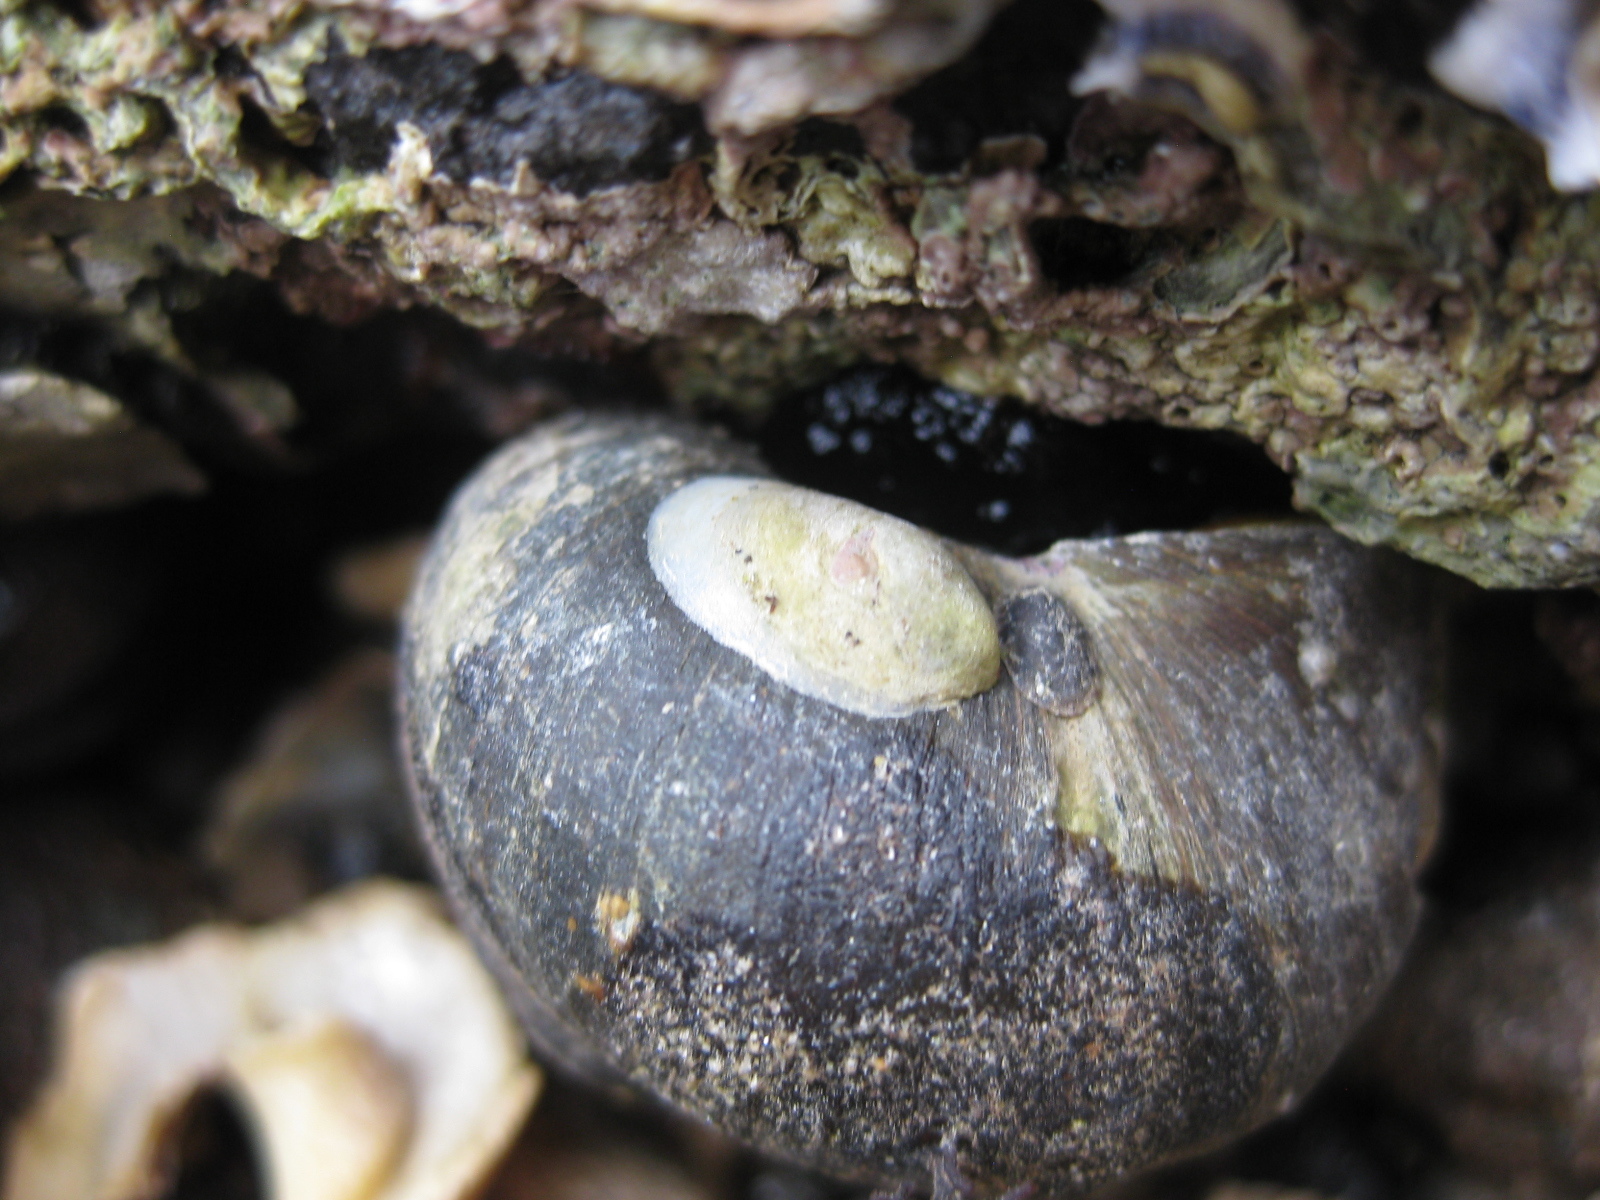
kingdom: Animalia
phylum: Mollusca
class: Gastropoda
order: Littorinimorpha
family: Calyptraeidae
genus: Maoricrypta
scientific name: Maoricrypta monoxyla
